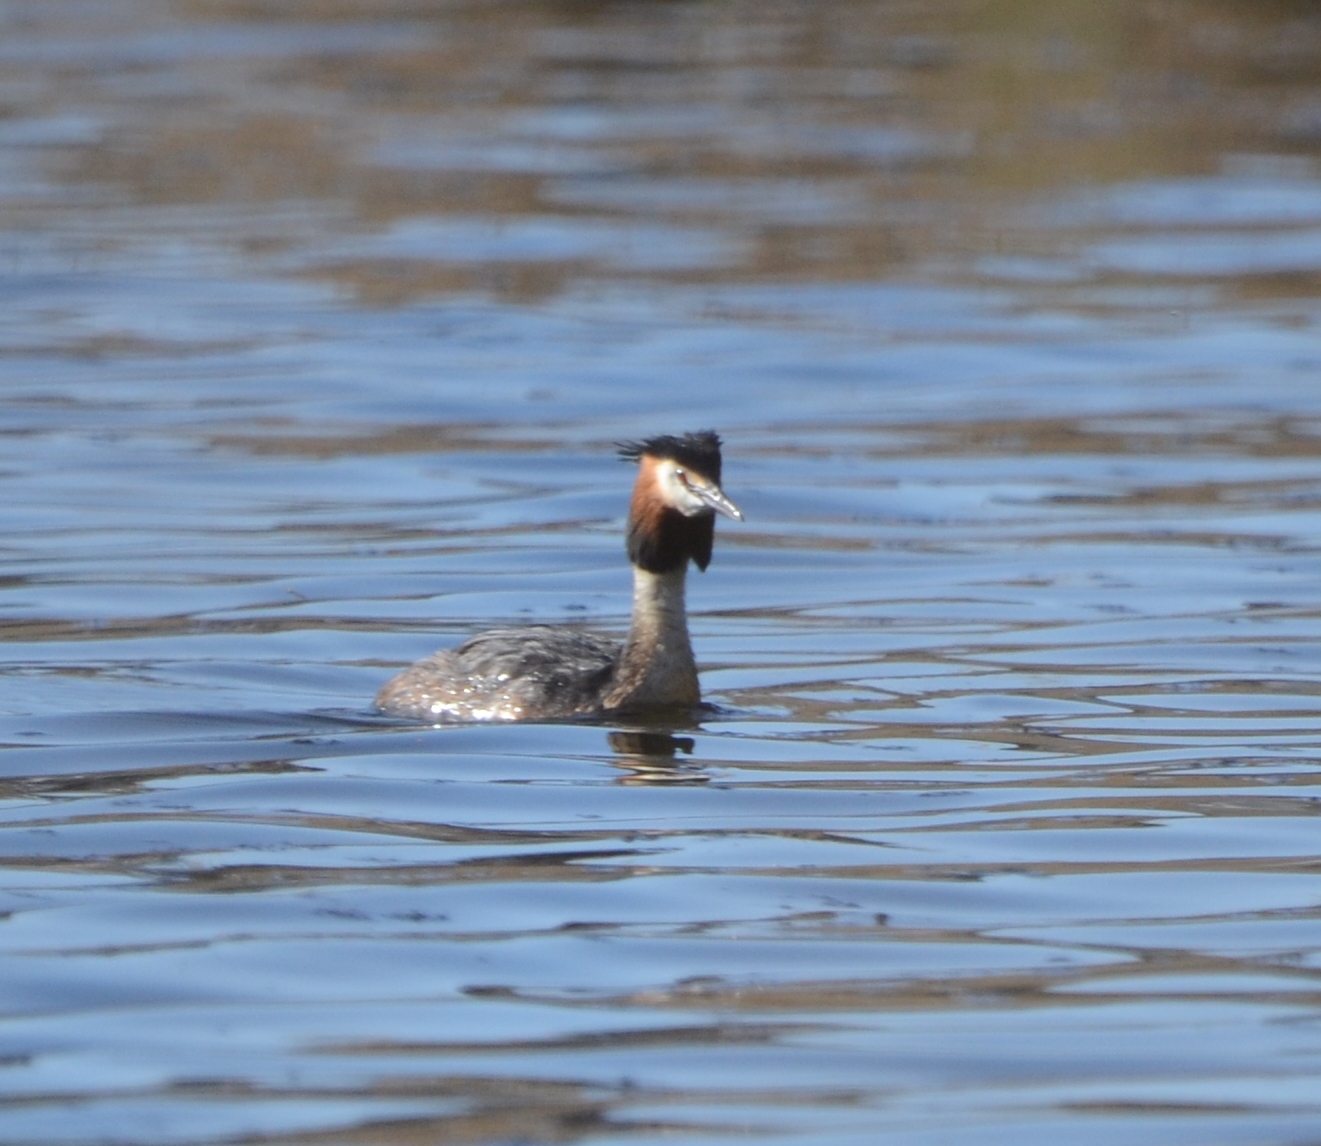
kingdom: Animalia
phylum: Chordata
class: Aves
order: Podicipediformes
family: Podicipedidae
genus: Podiceps
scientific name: Podiceps cristatus
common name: Great crested grebe
